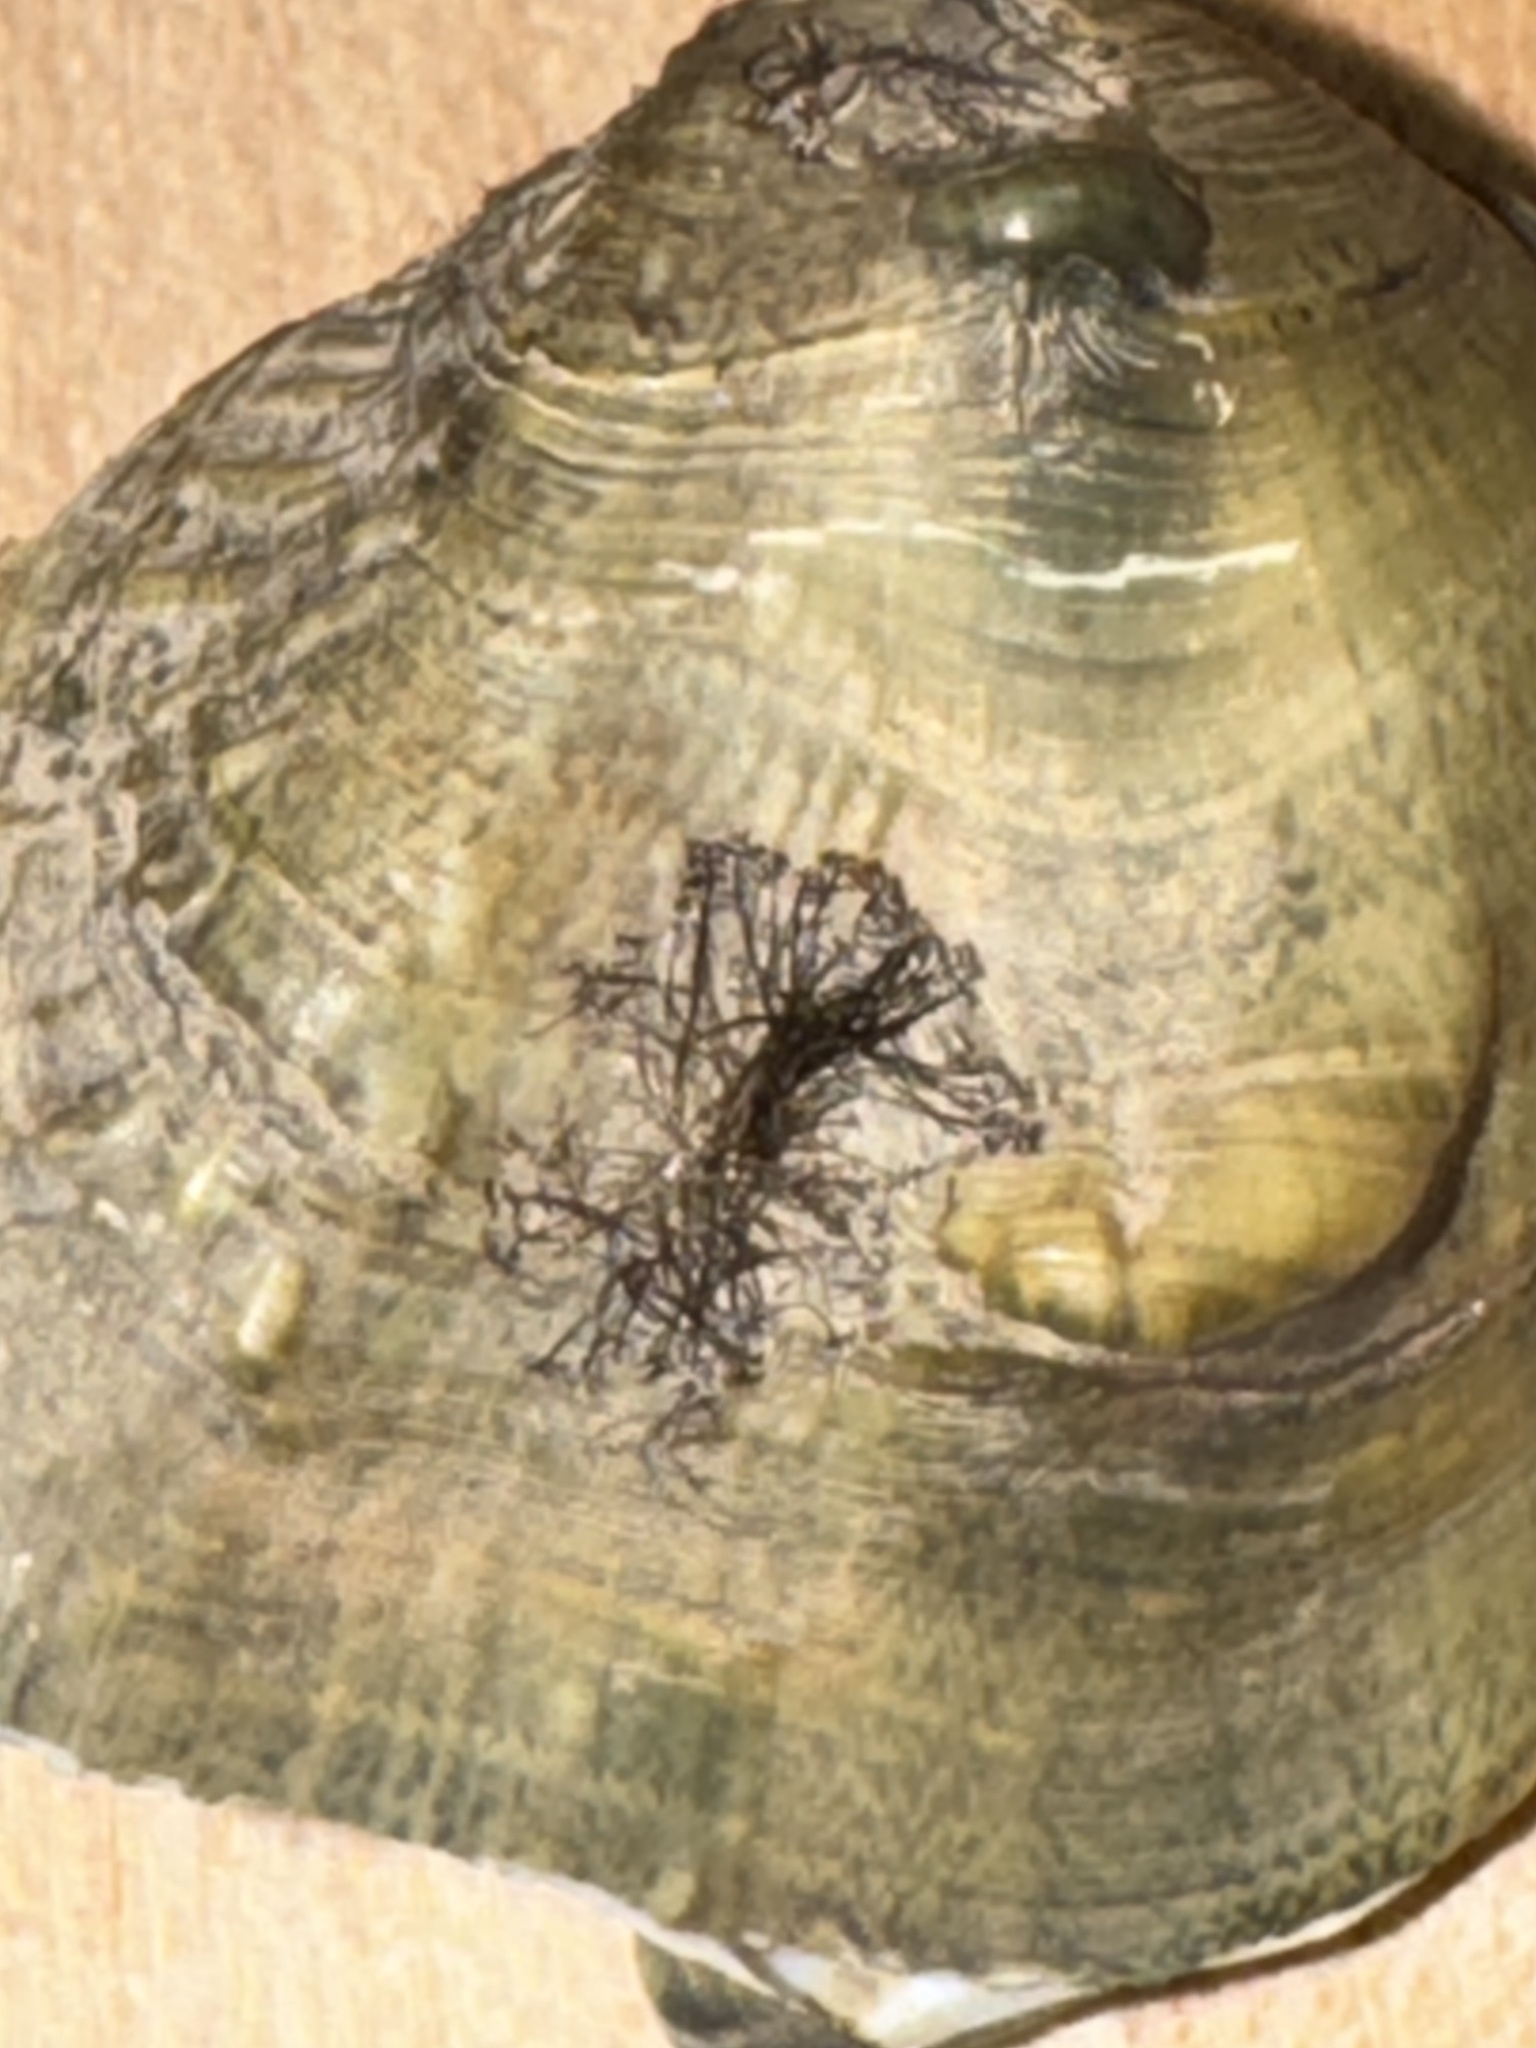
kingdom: Animalia
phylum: Mollusca
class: Bivalvia
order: Myida
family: Dreissenidae
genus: Dreissena
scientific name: Dreissena polymorpha
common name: Zebra mussel
